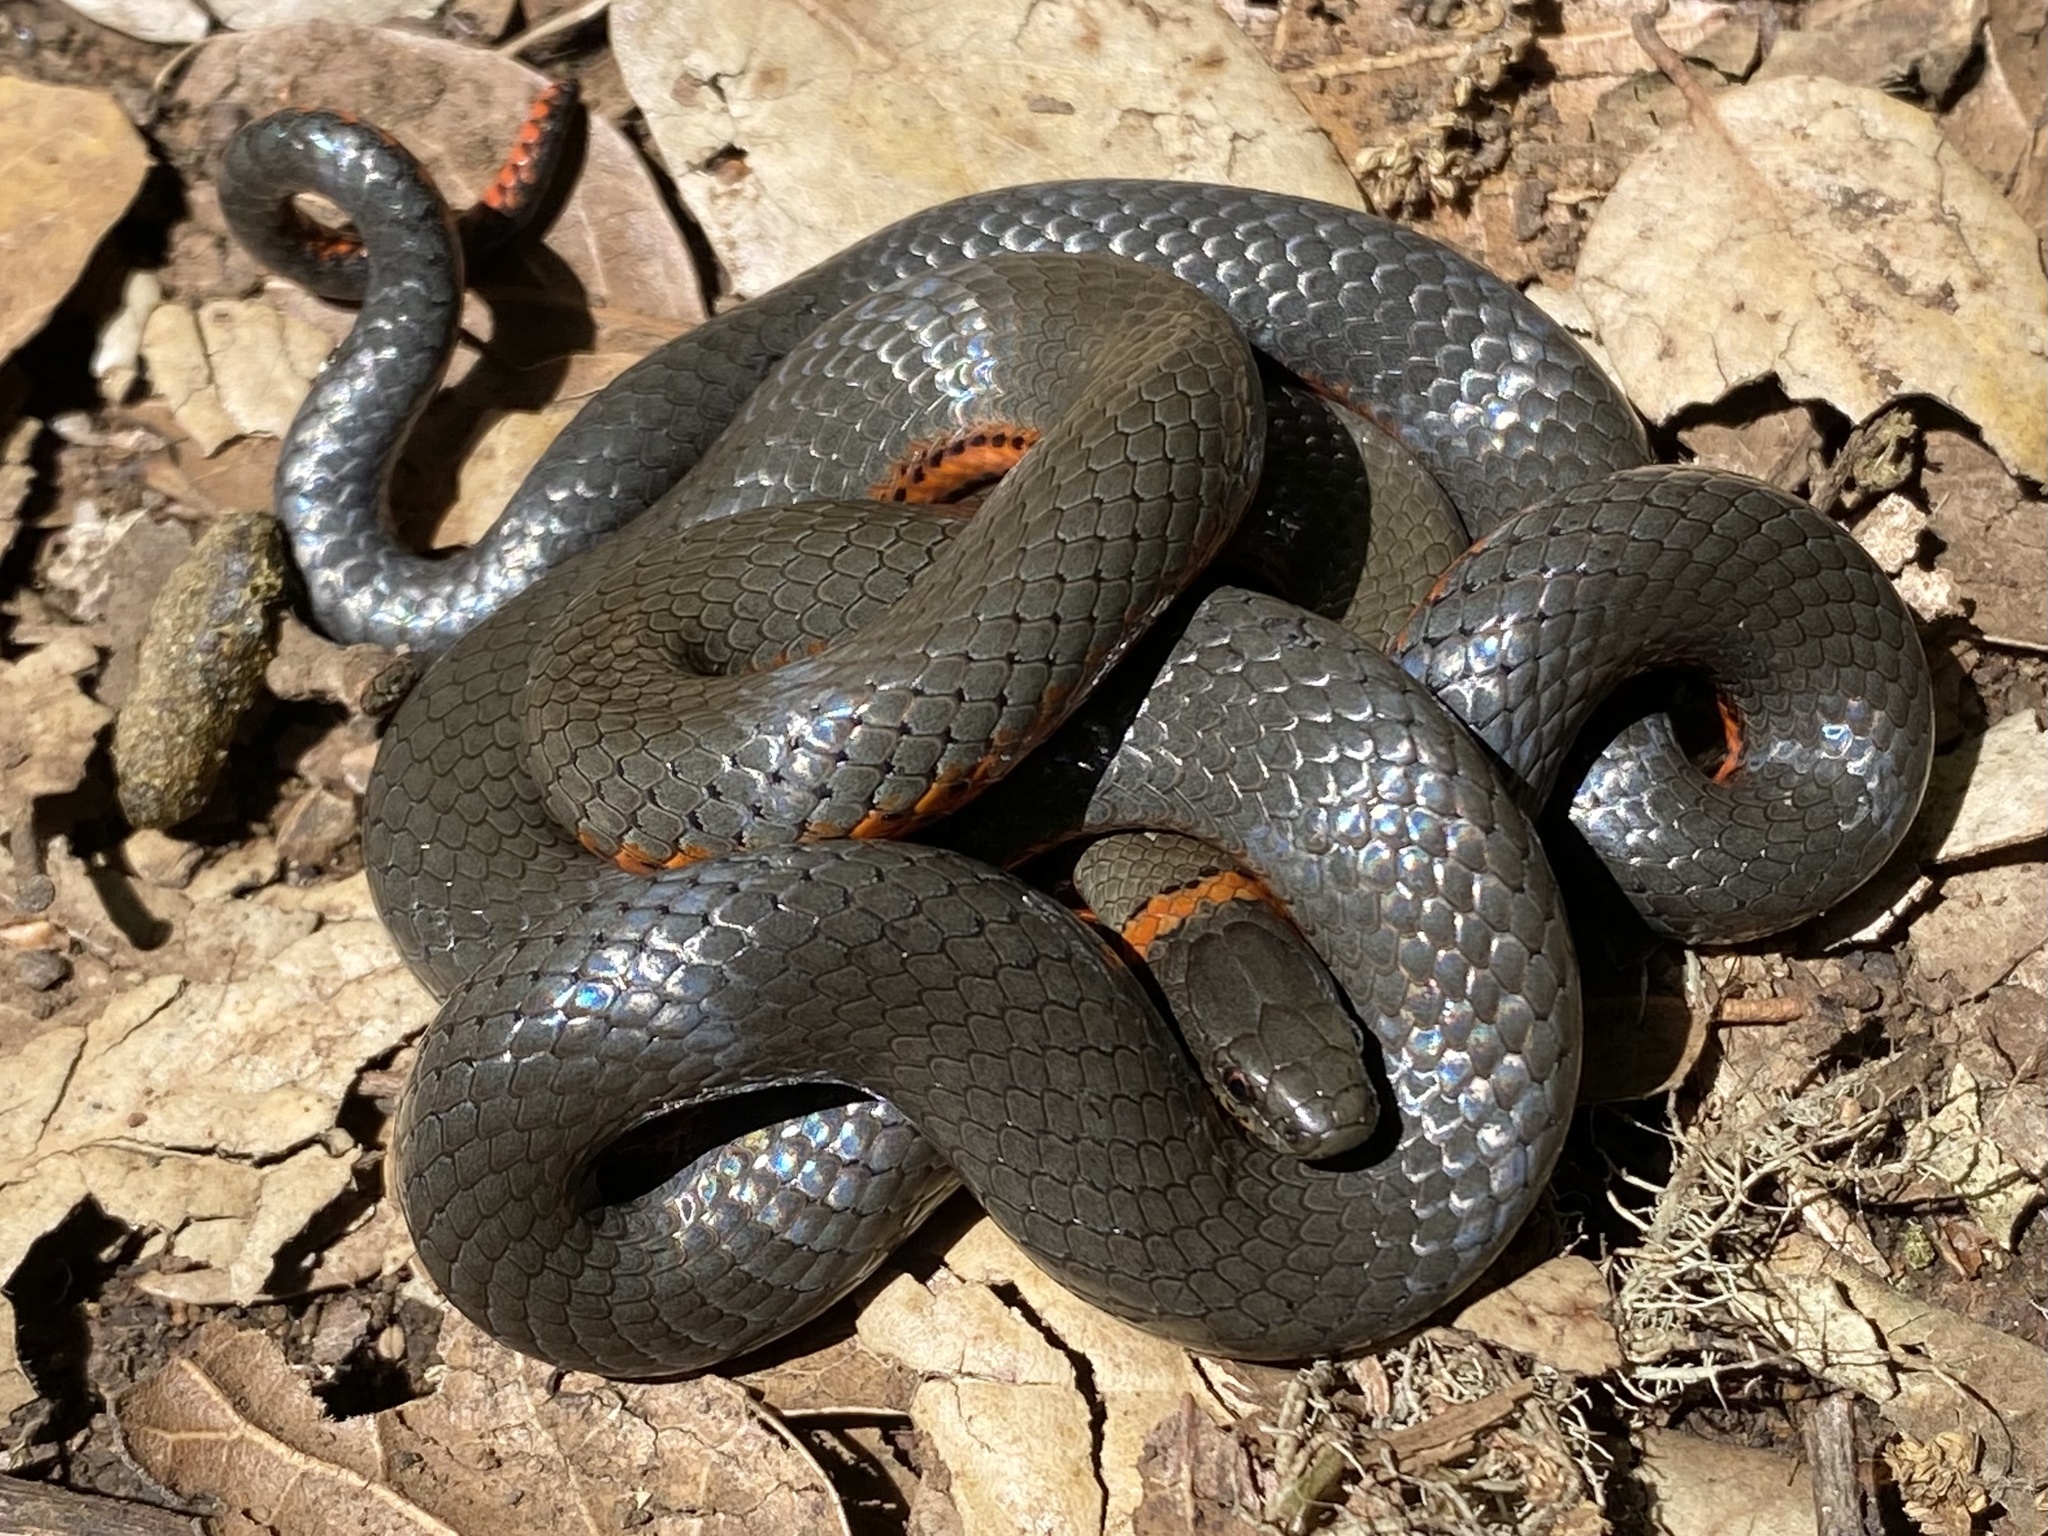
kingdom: Animalia
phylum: Chordata
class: Squamata
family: Colubridae
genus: Diadophis
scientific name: Diadophis punctatus
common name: Ringneck snake
